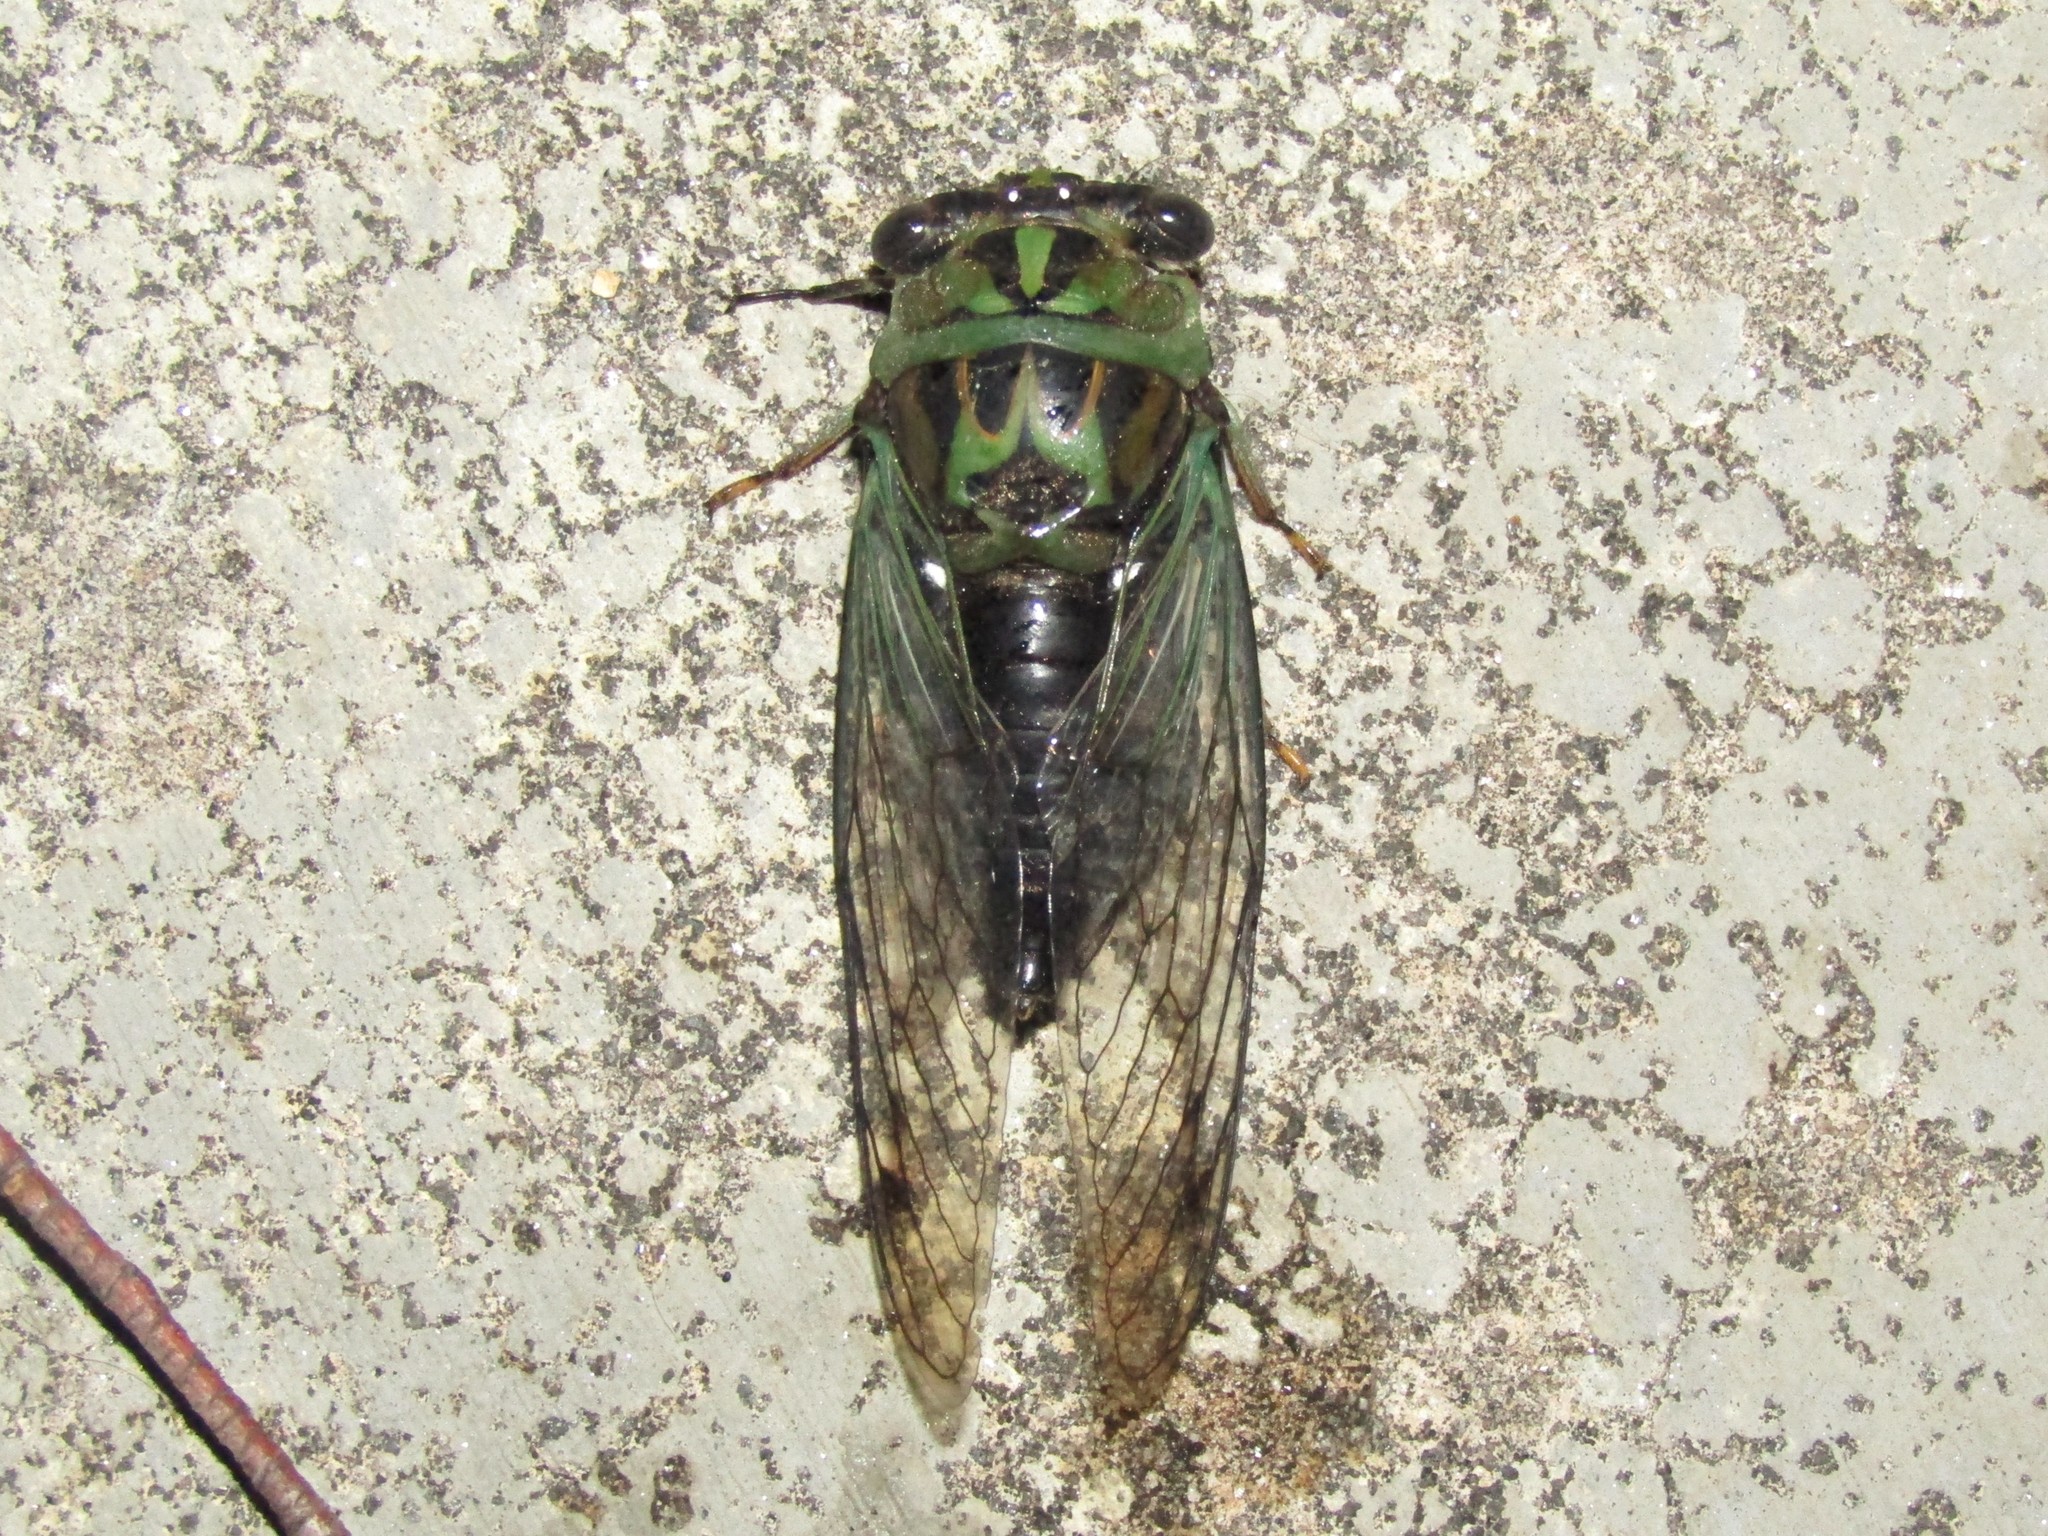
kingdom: Animalia
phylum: Arthropoda
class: Insecta
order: Hemiptera
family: Cicadidae
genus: Neotibicen
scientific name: Neotibicen robinsonianus
